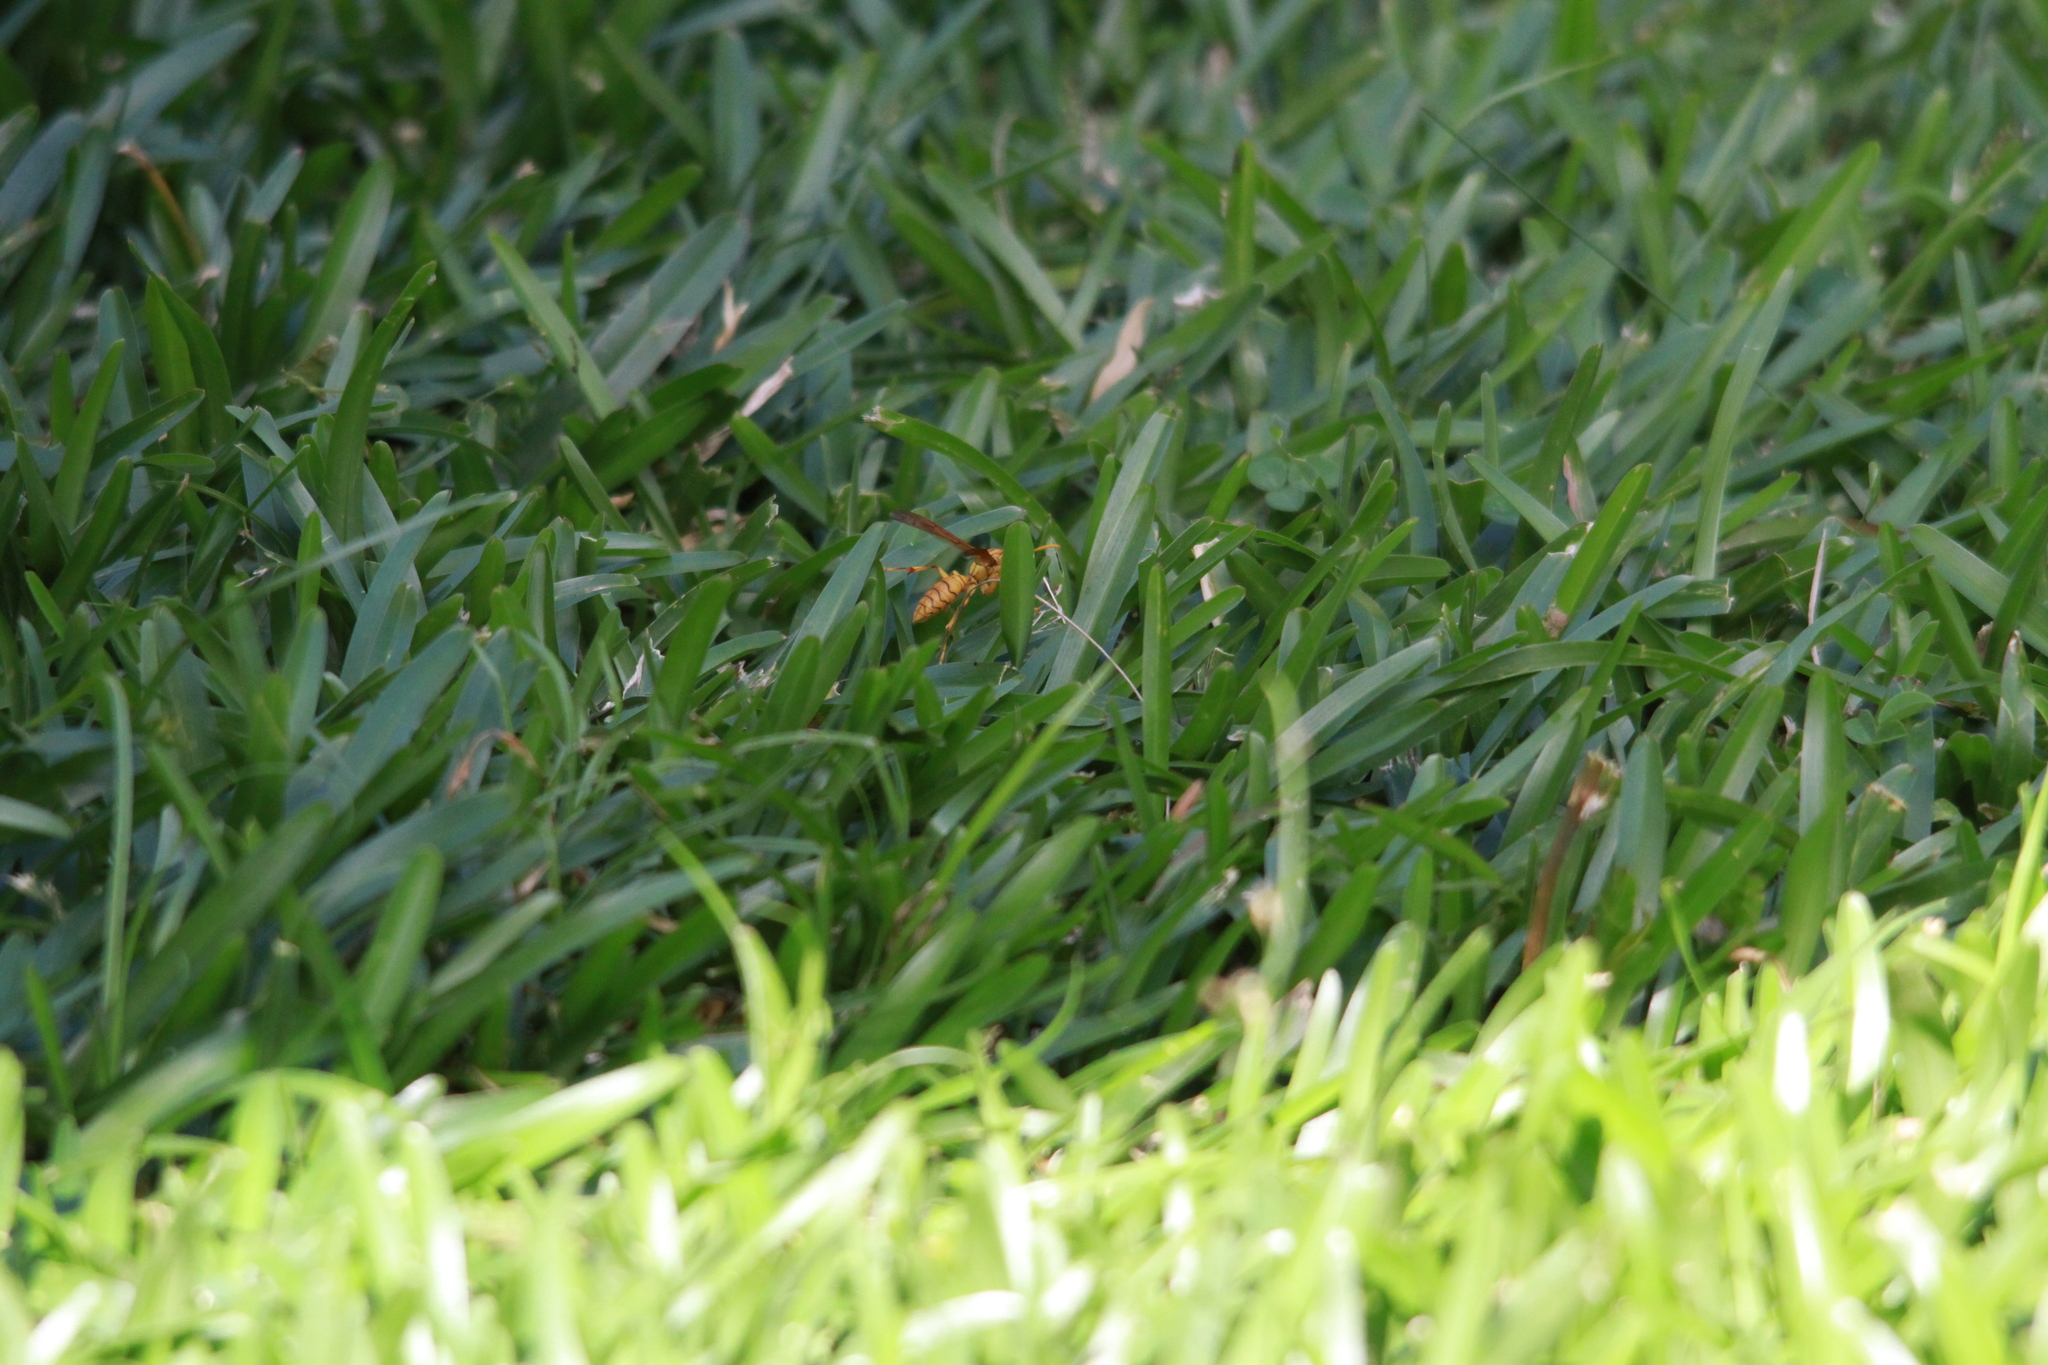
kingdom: Animalia
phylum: Arthropoda
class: Insecta
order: Hymenoptera
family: Eumenidae
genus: Polistes
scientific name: Polistes olivaceus
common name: Paper wasp
